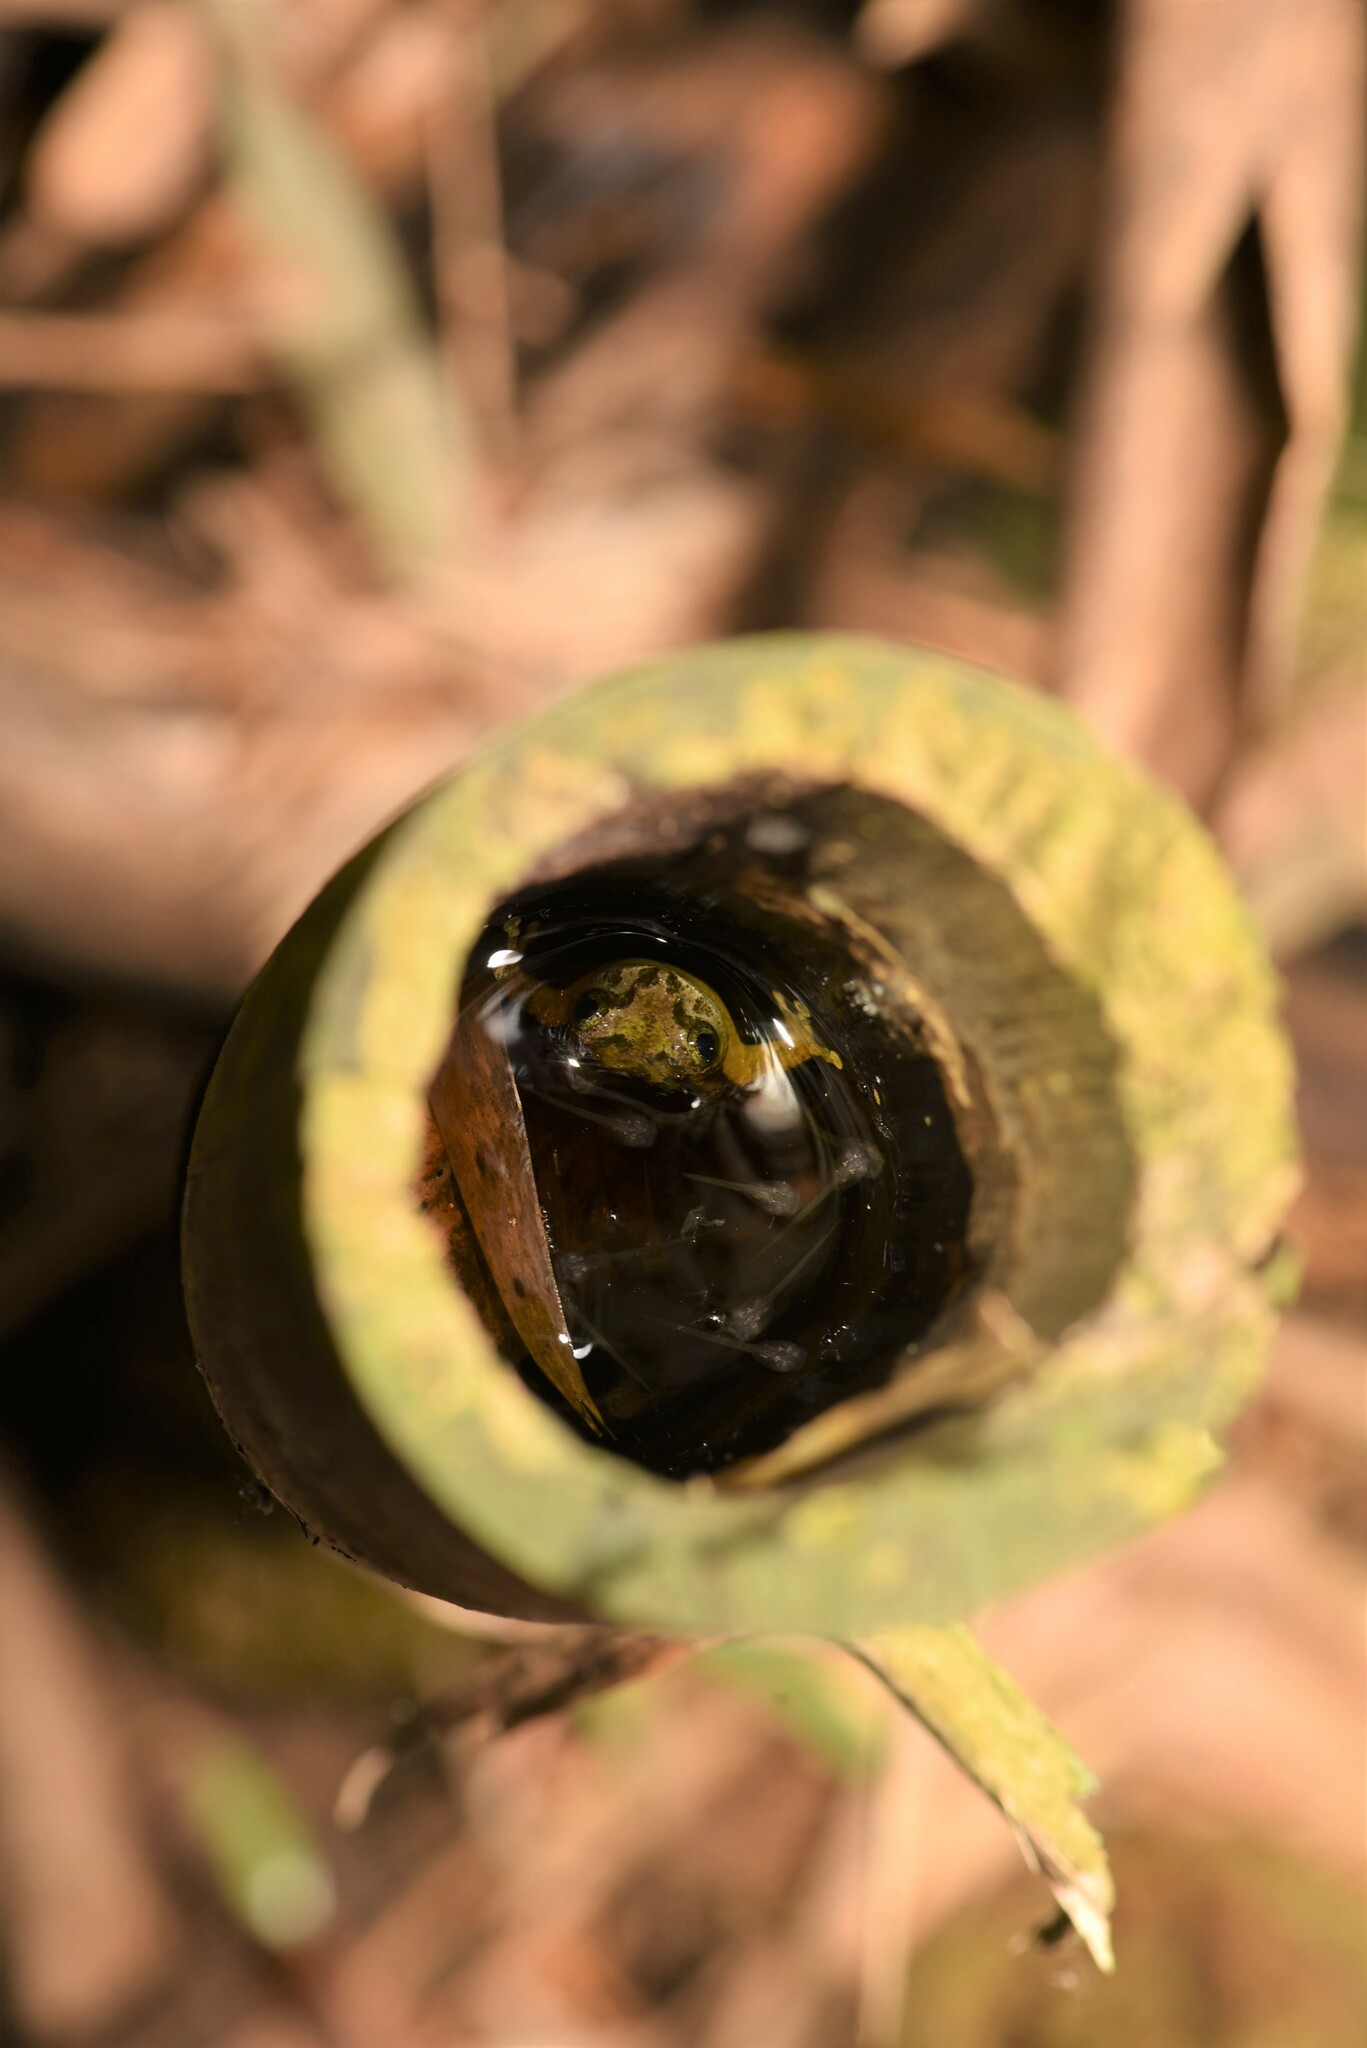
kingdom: Animalia
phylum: Chordata
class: Amphibia
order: Anura
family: Rhacophoridae
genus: Kurixalus
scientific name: Kurixalus berylliniris
